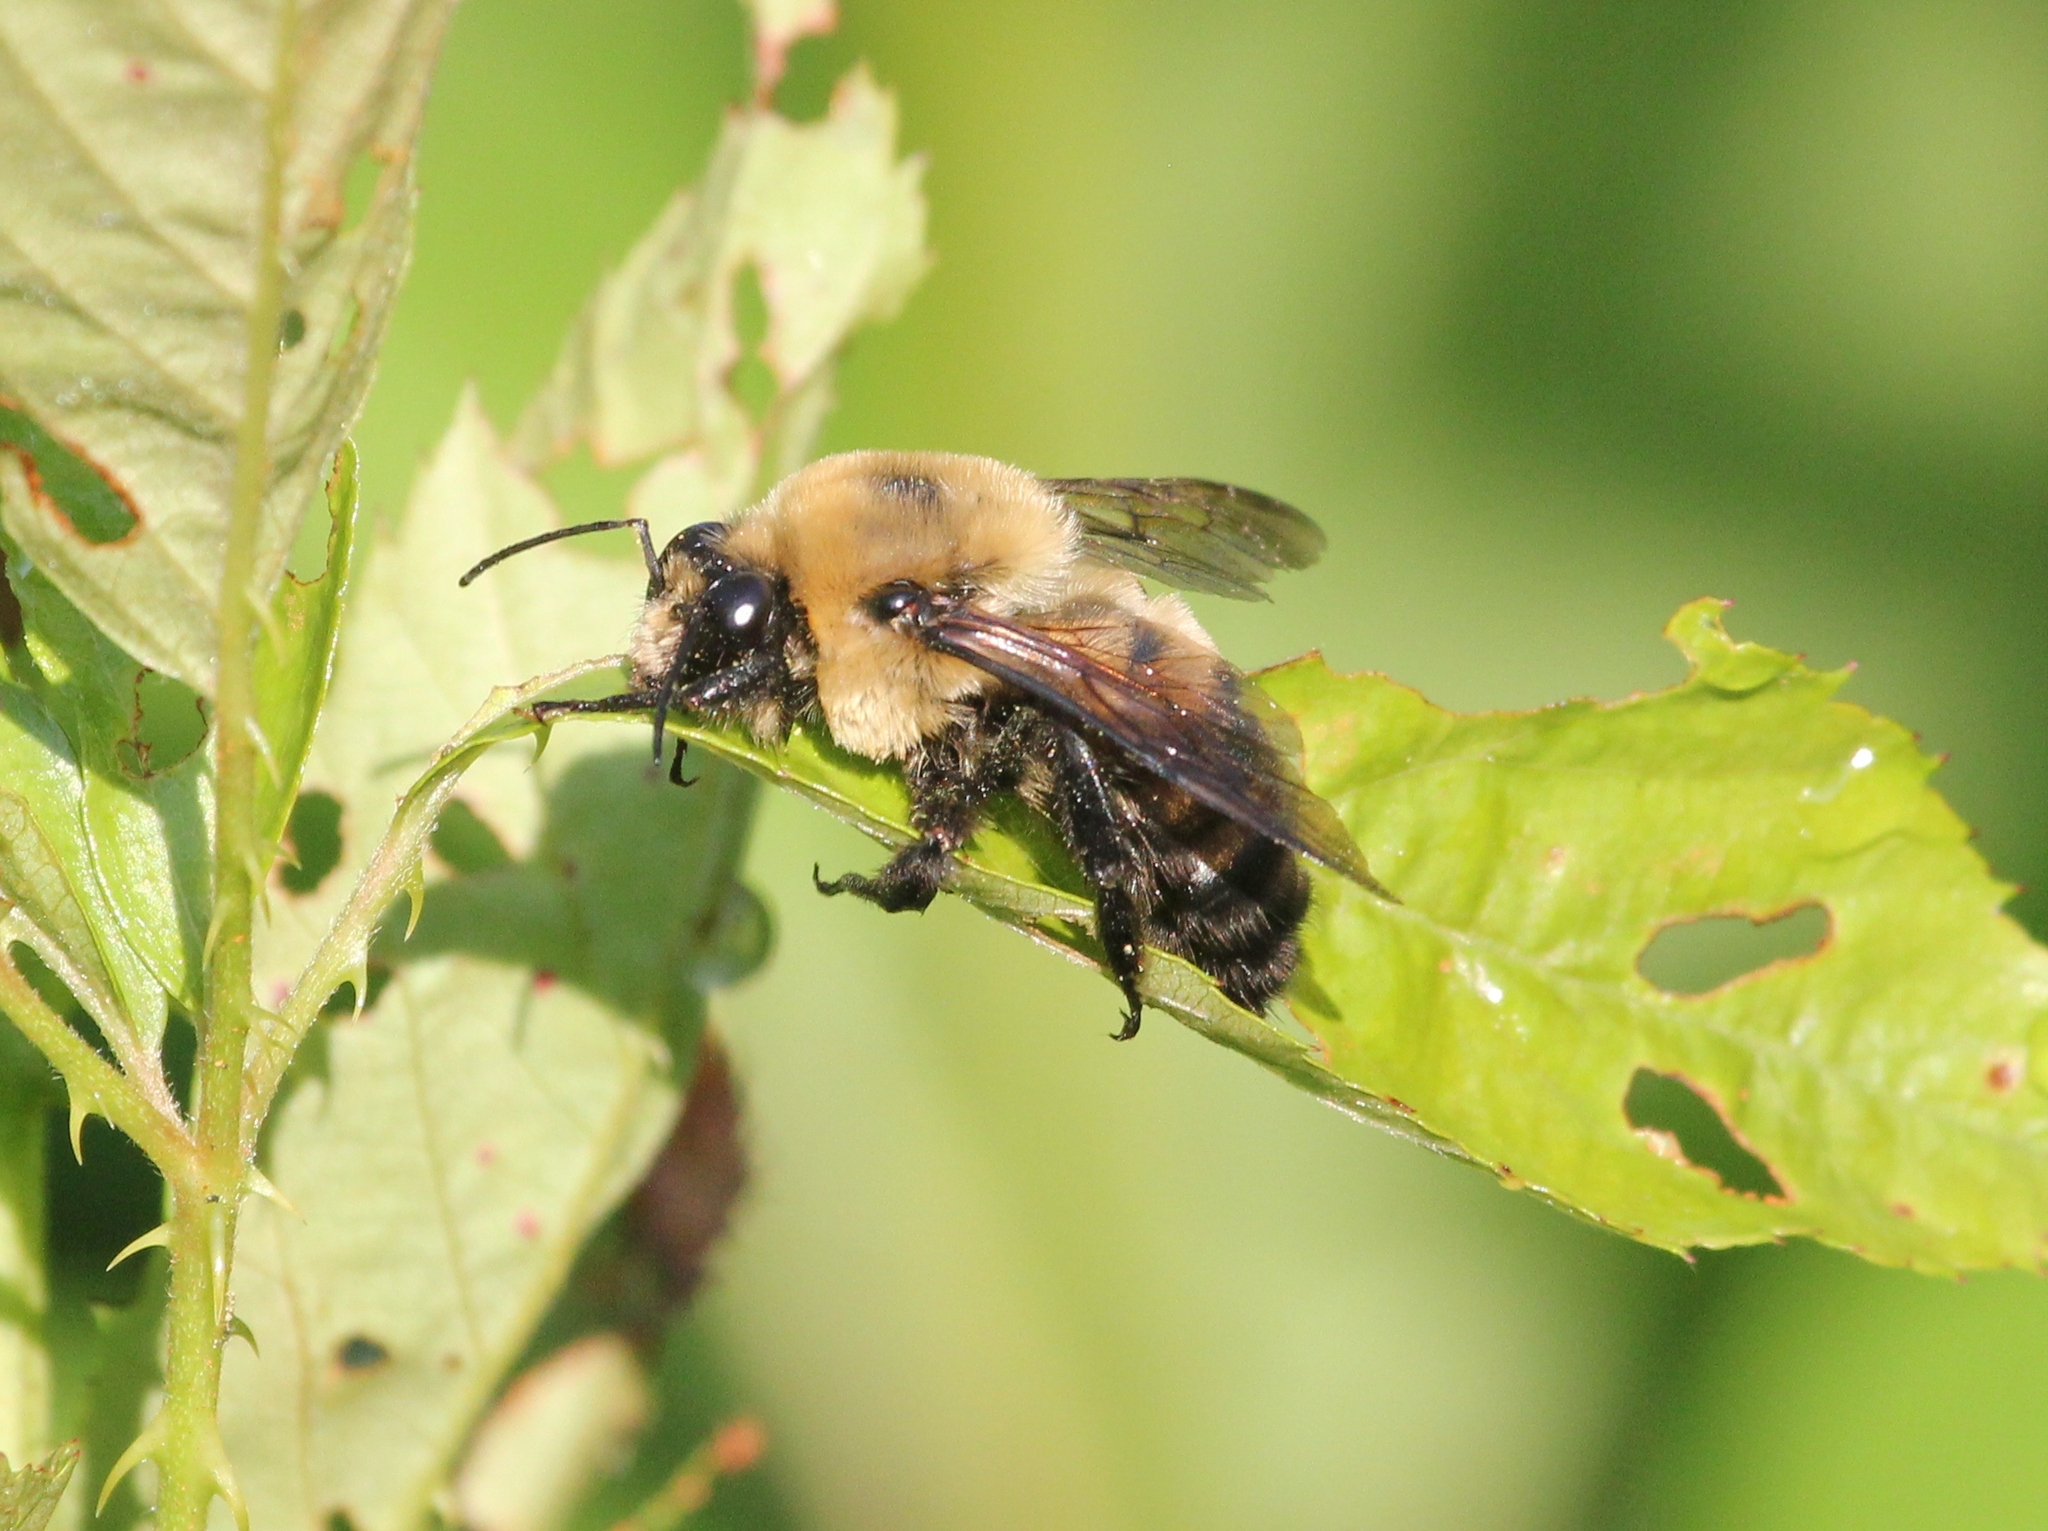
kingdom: Animalia
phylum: Arthropoda
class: Insecta
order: Hymenoptera
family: Apidae
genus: Bombus
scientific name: Bombus griseocollis
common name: Brown-belted bumble bee
